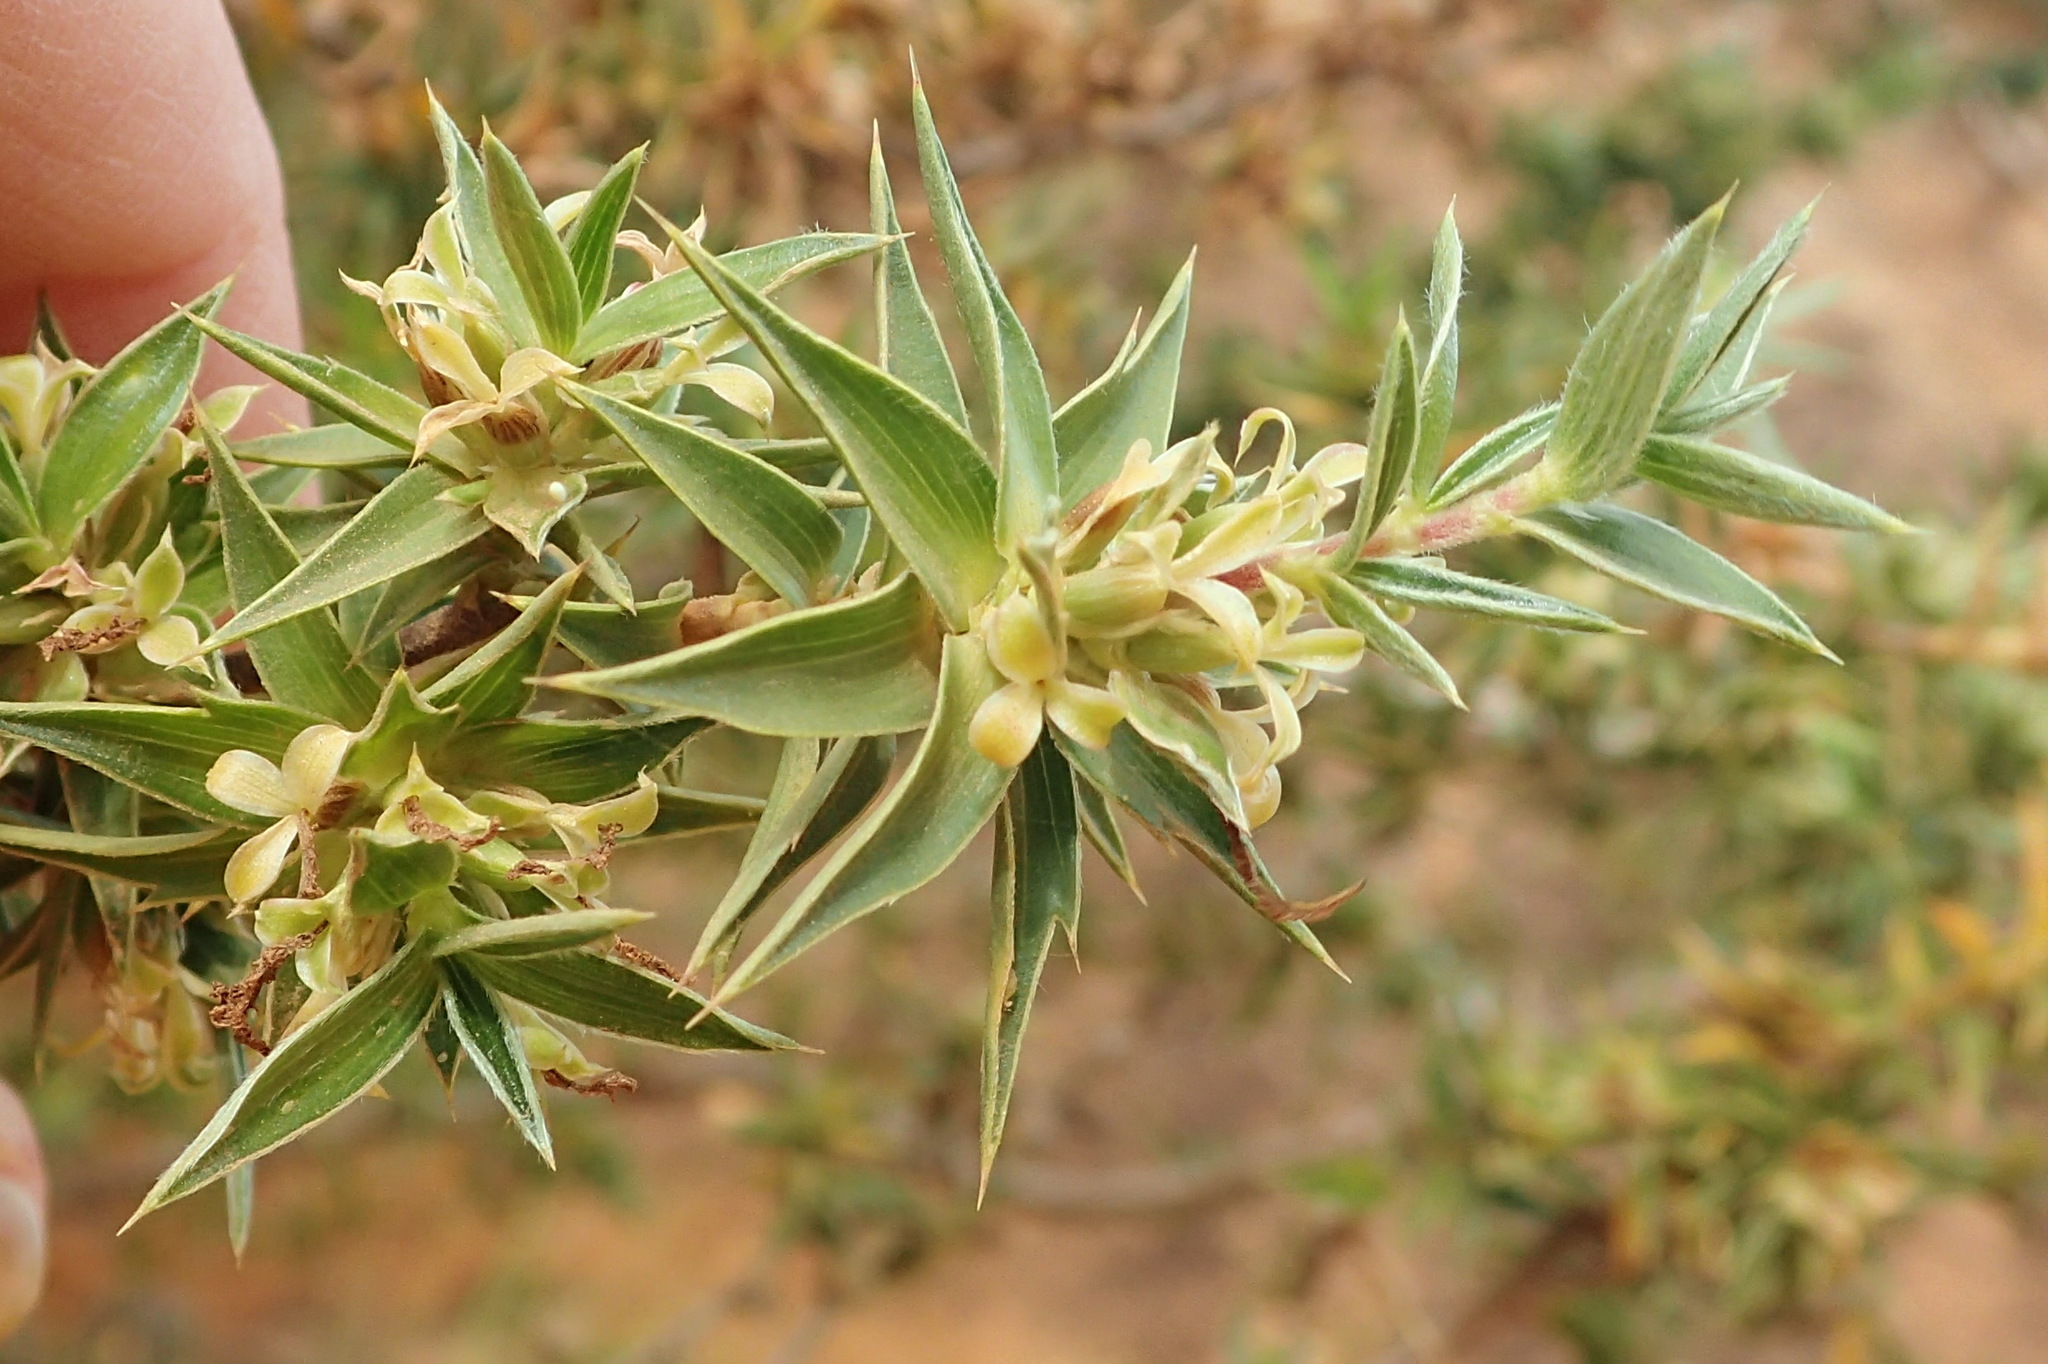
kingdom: Plantae
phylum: Tracheophyta
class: Magnoliopsida
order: Rosales
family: Rosaceae
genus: Cliffortia
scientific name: Cliffortia ruscifolia
